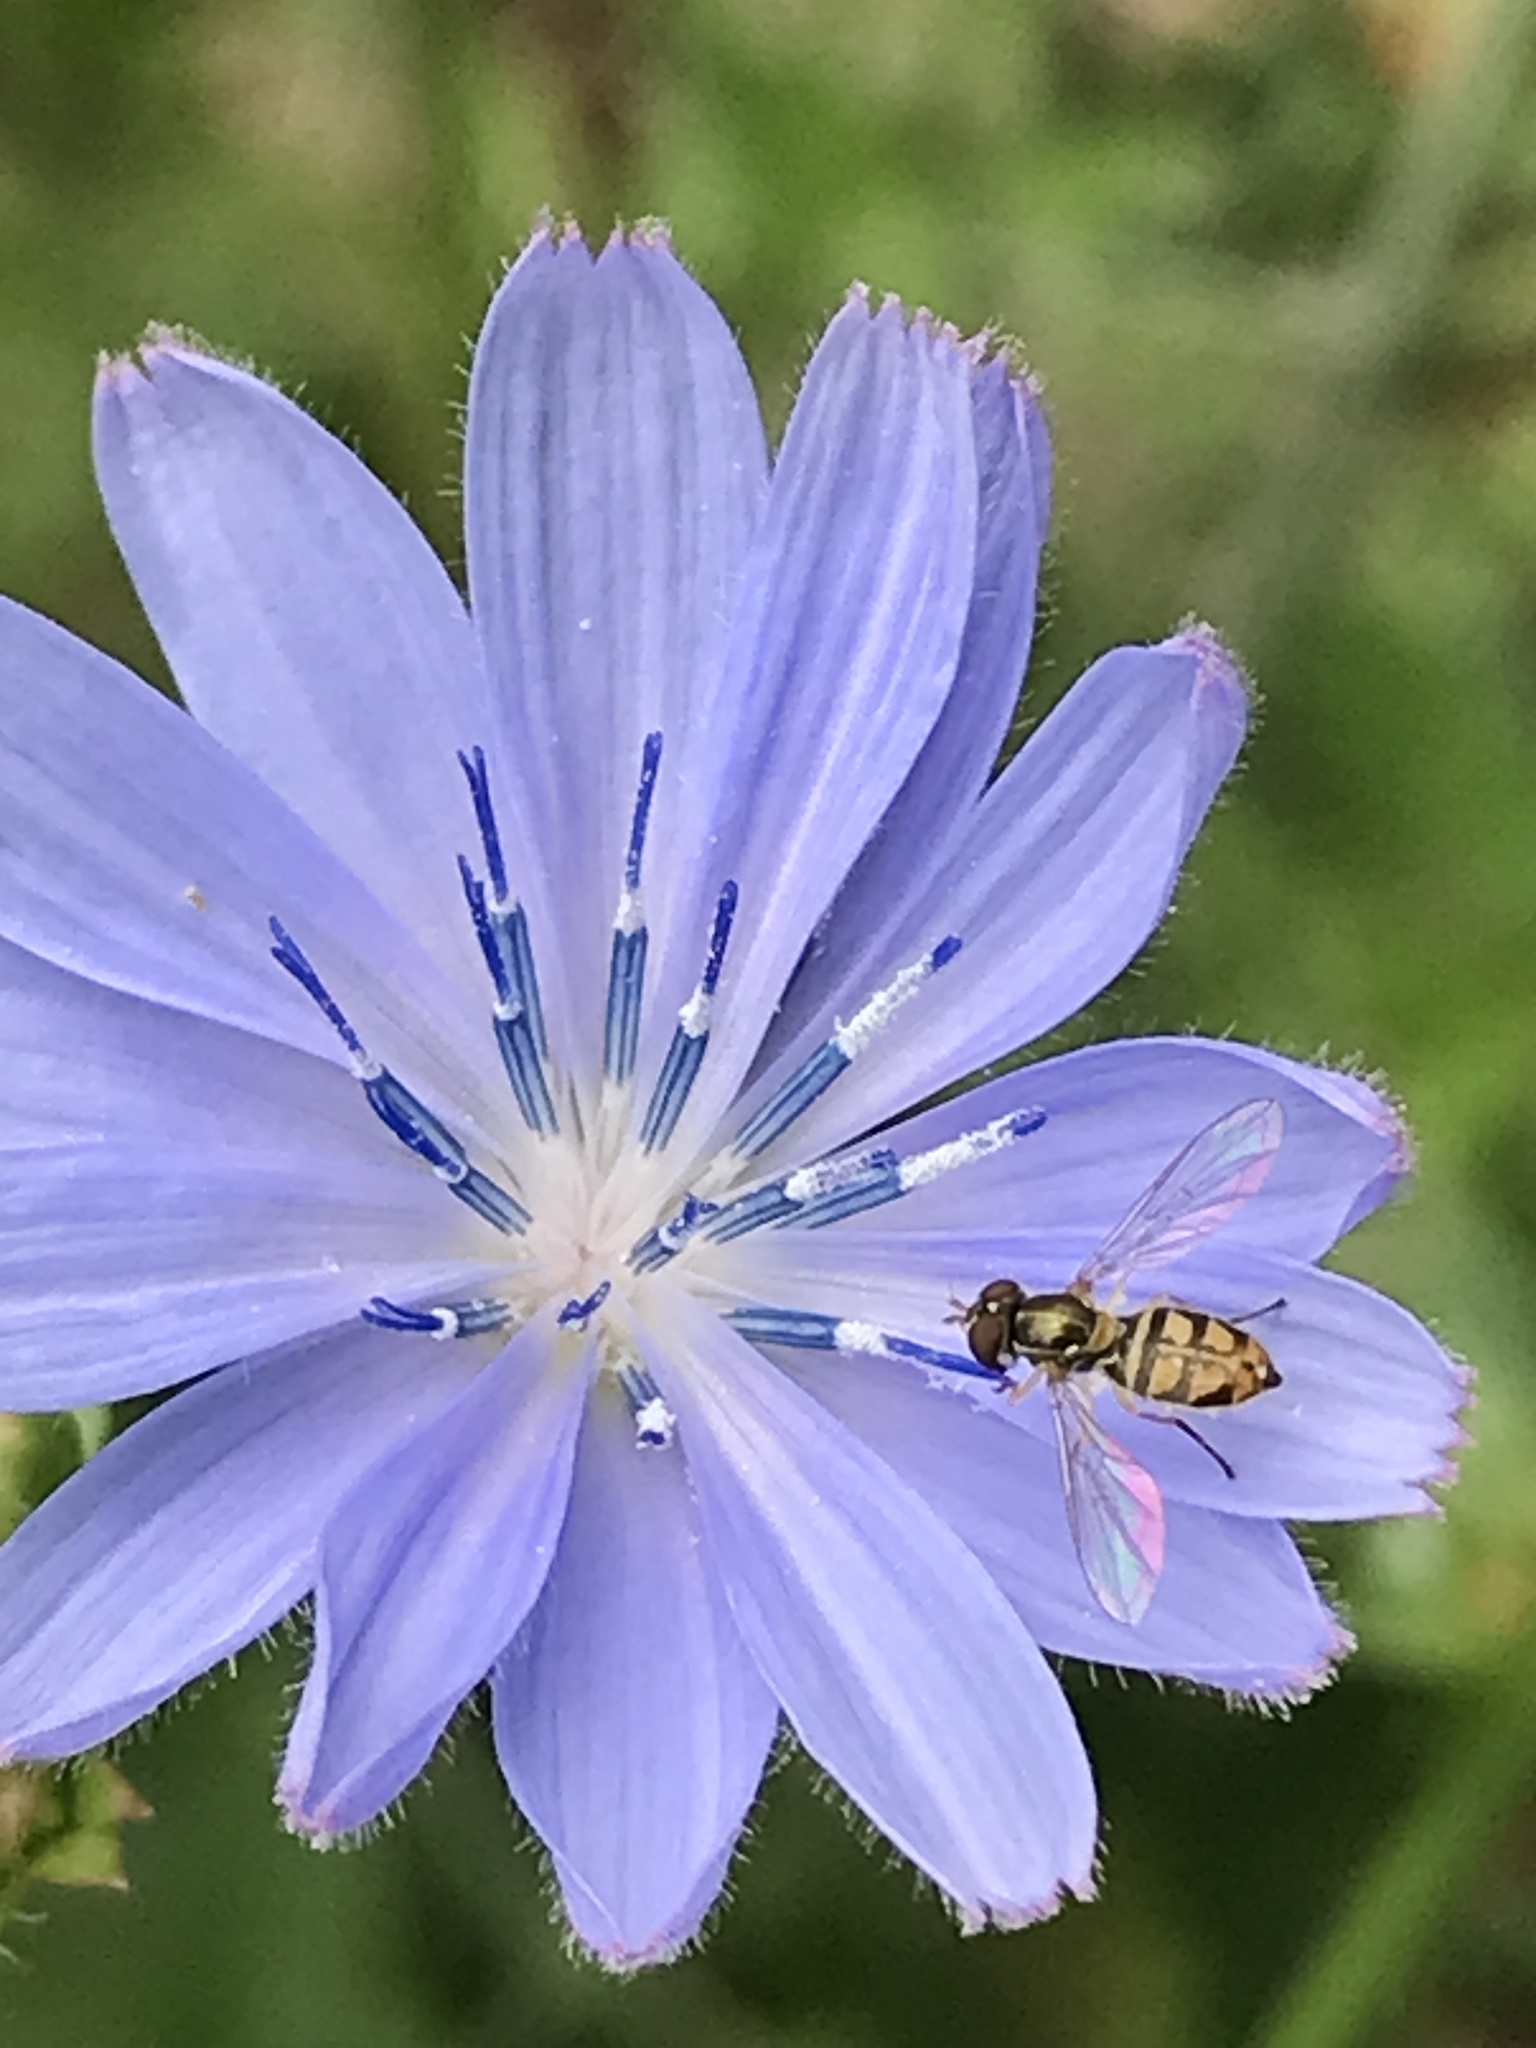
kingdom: Plantae
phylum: Tracheophyta
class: Magnoliopsida
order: Asterales
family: Asteraceae
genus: Cichorium
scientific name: Cichorium intybus
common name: Chicory
